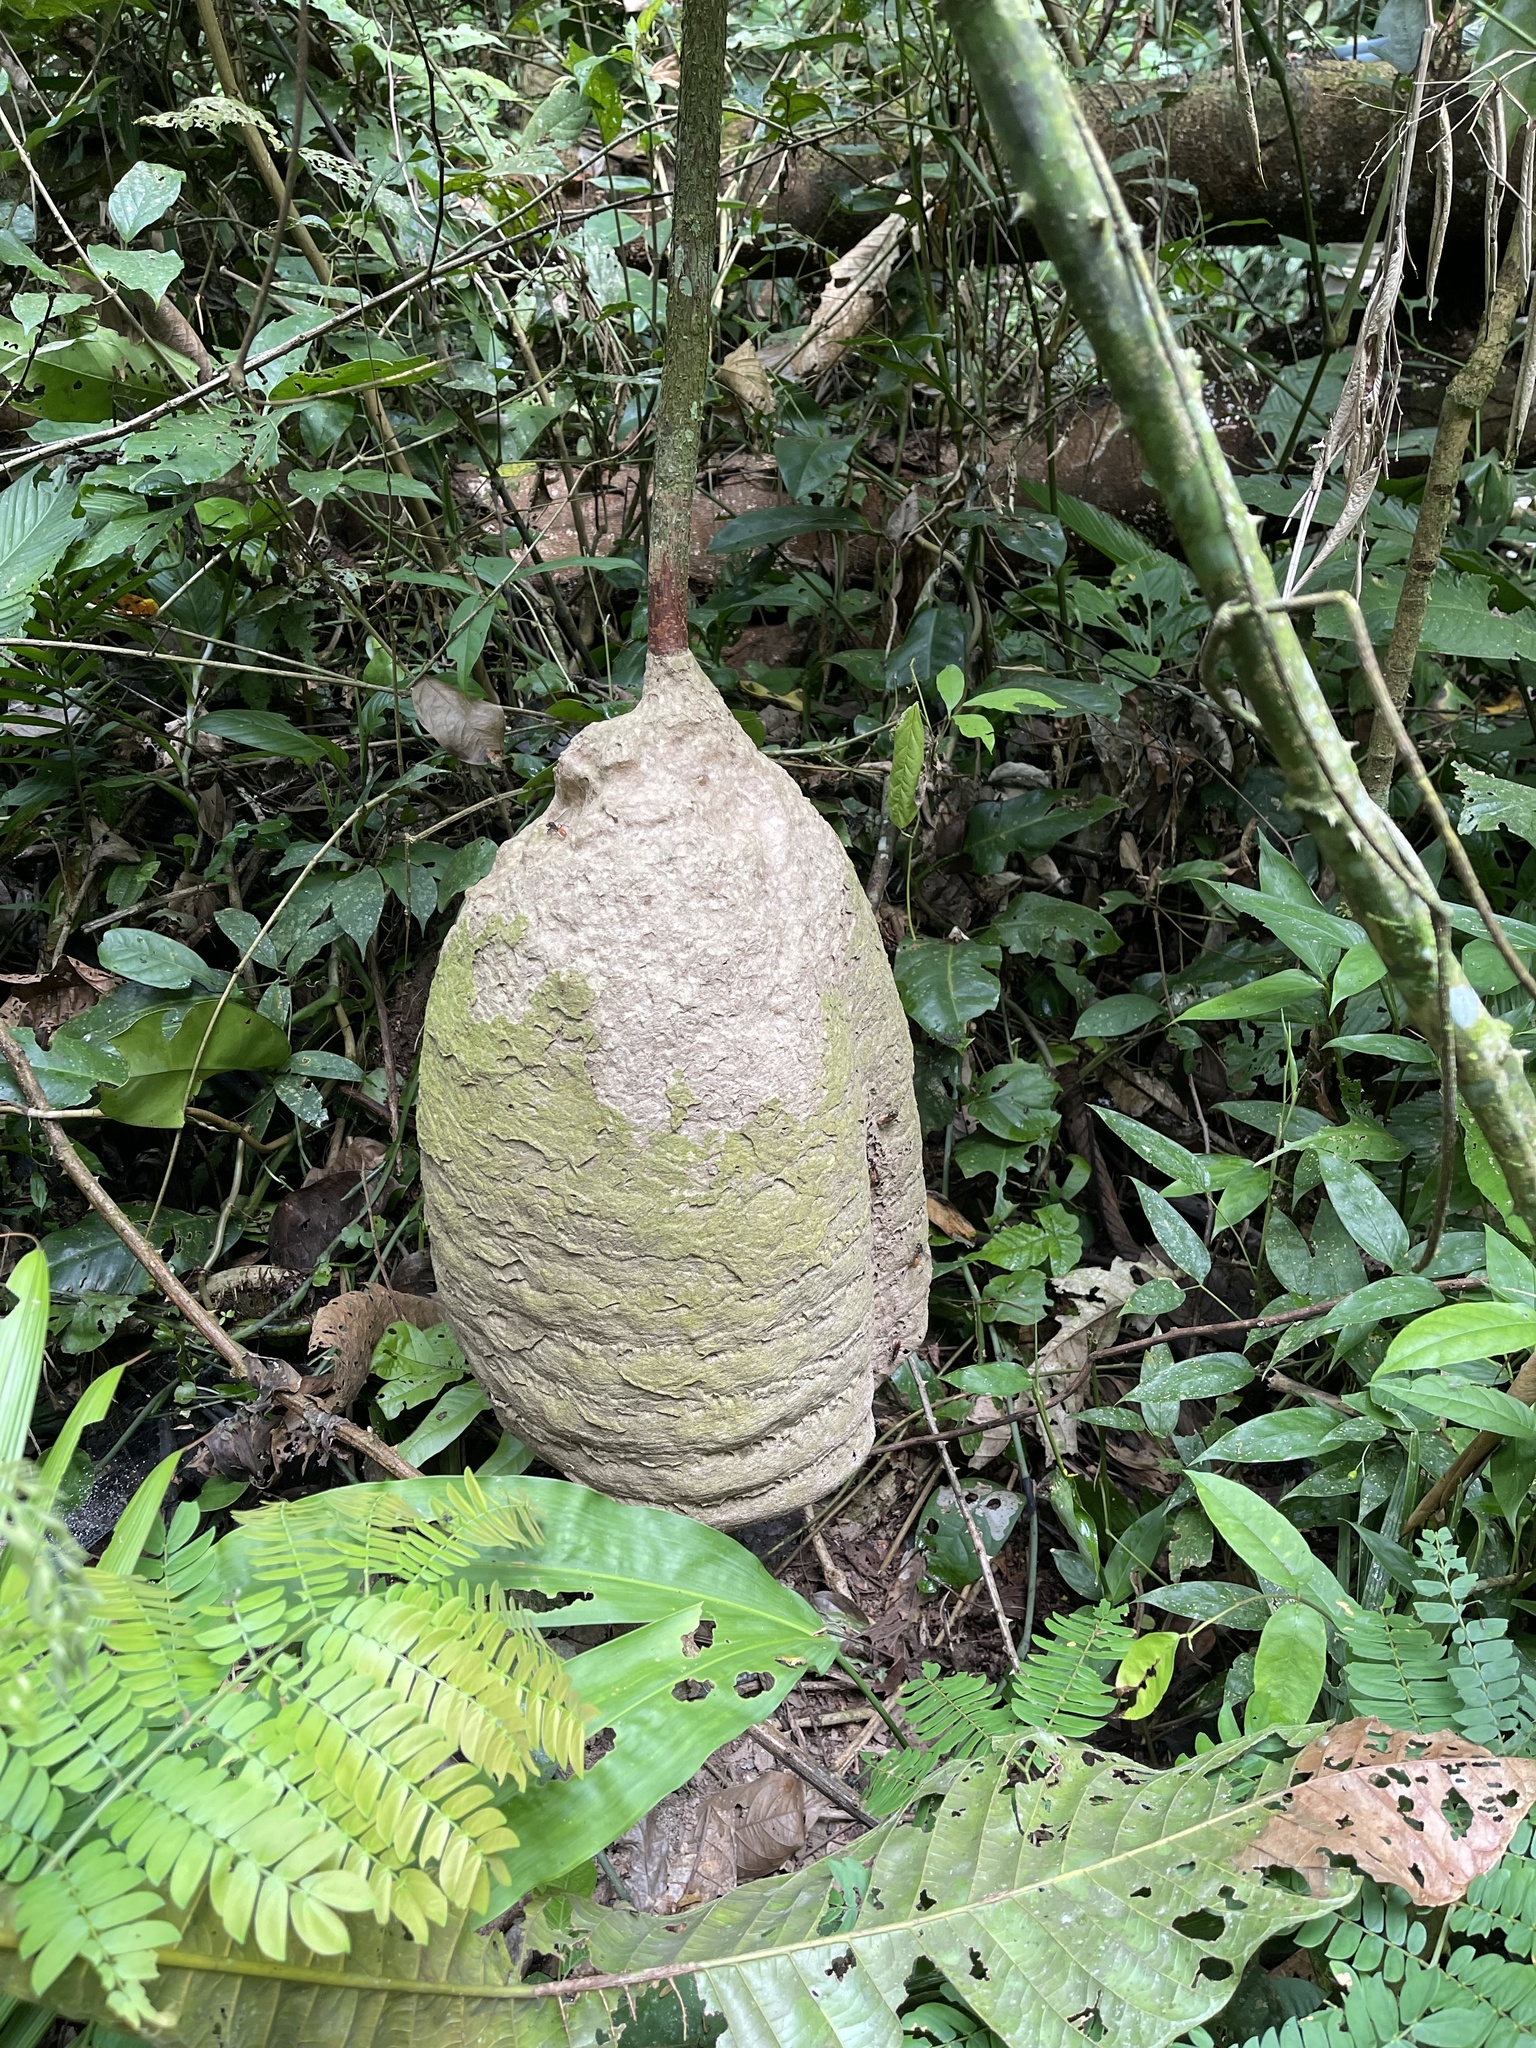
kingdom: Animalia
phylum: Arthropoda
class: Insecta
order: Hymenoptera
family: Eumenidae
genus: Polybia
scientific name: Polybia dimidiata
